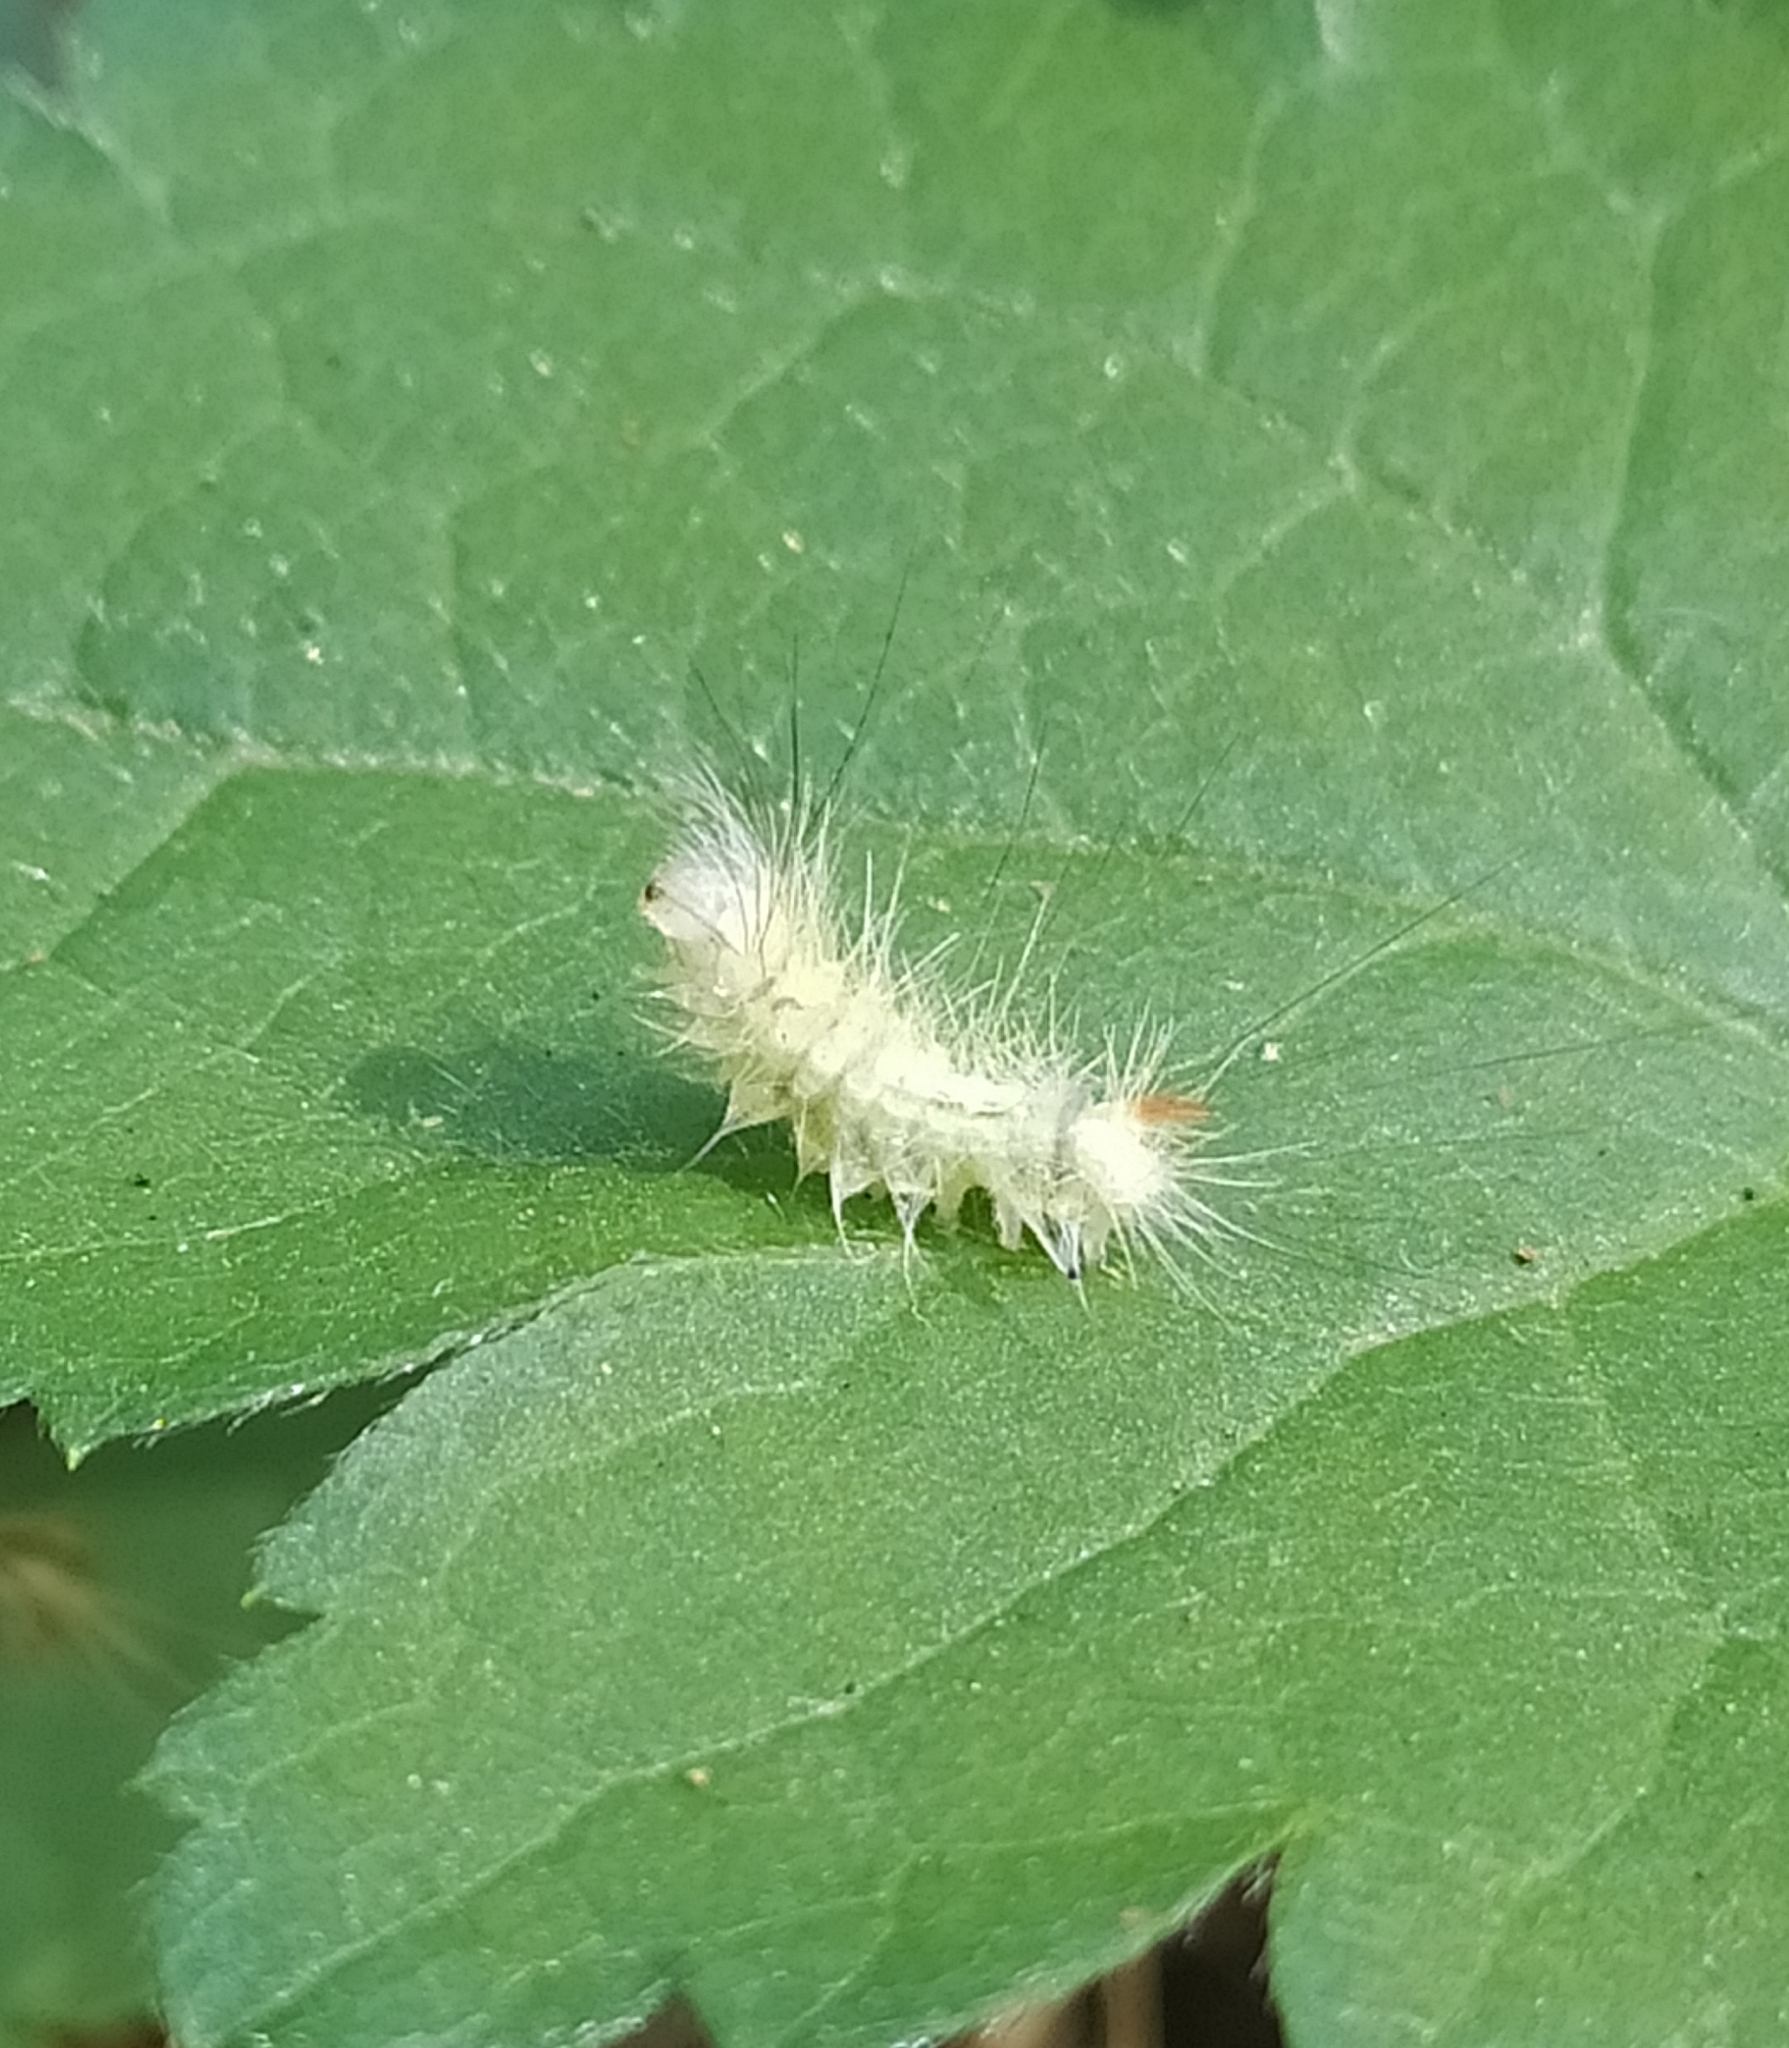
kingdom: Animalia
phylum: Arthropoda
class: Insecta
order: Lepidoptera
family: Erebidae
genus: Calliteara
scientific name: Calliteara pudibunda
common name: Pale tussock
